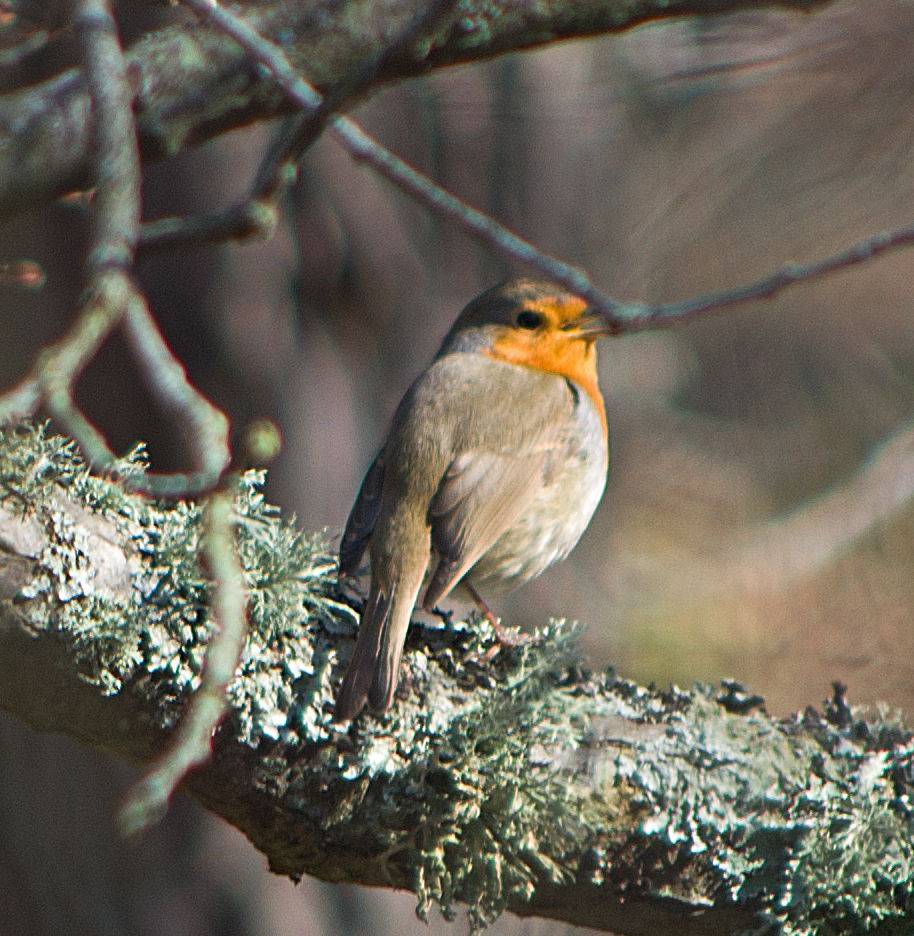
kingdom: Animalia
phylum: Chordata
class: Aves
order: Passeriformes
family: Muscicapidae
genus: Erithacus
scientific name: Erithacus rubecula
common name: European robin
